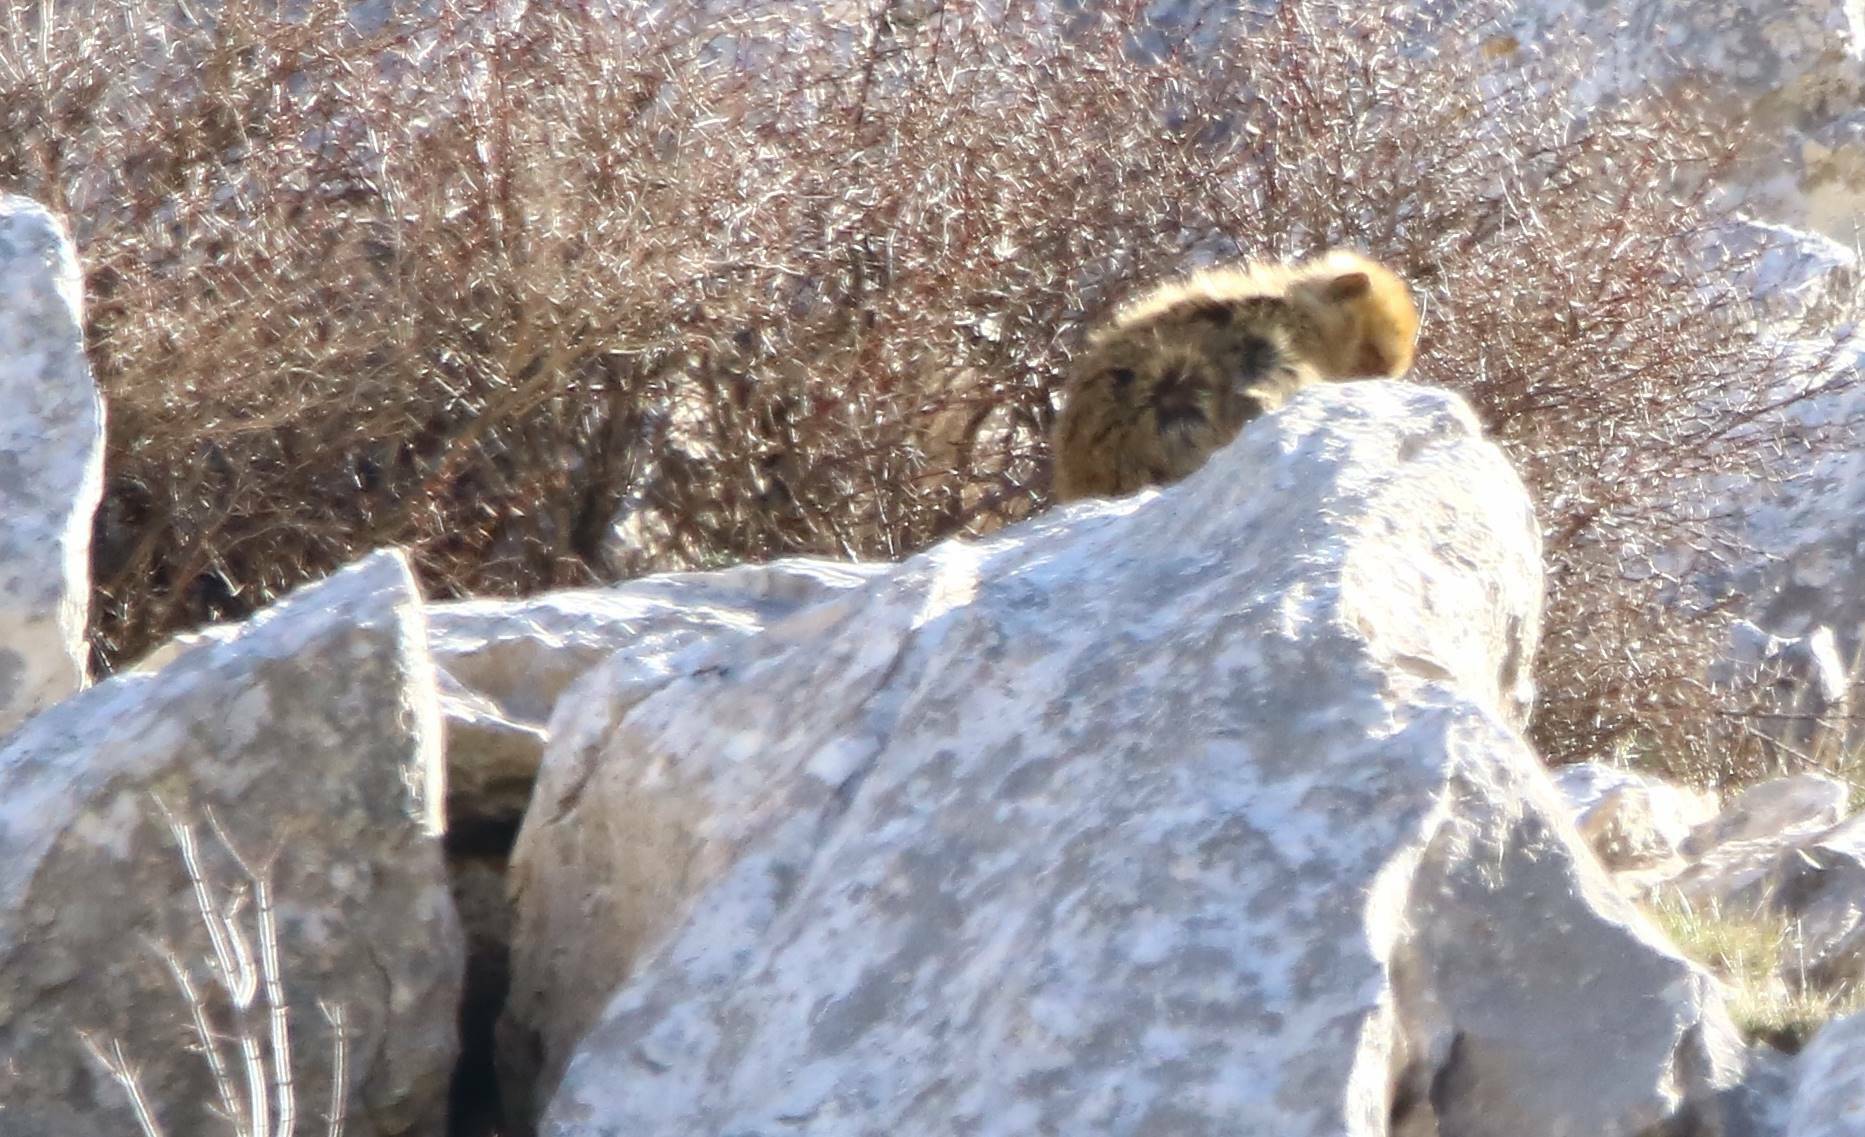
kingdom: Animalia
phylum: Chordata
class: Mammalia
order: Primates
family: Cercopithecidae
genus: Macaca
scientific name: Macaca sylvanus
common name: Barbary macaque
